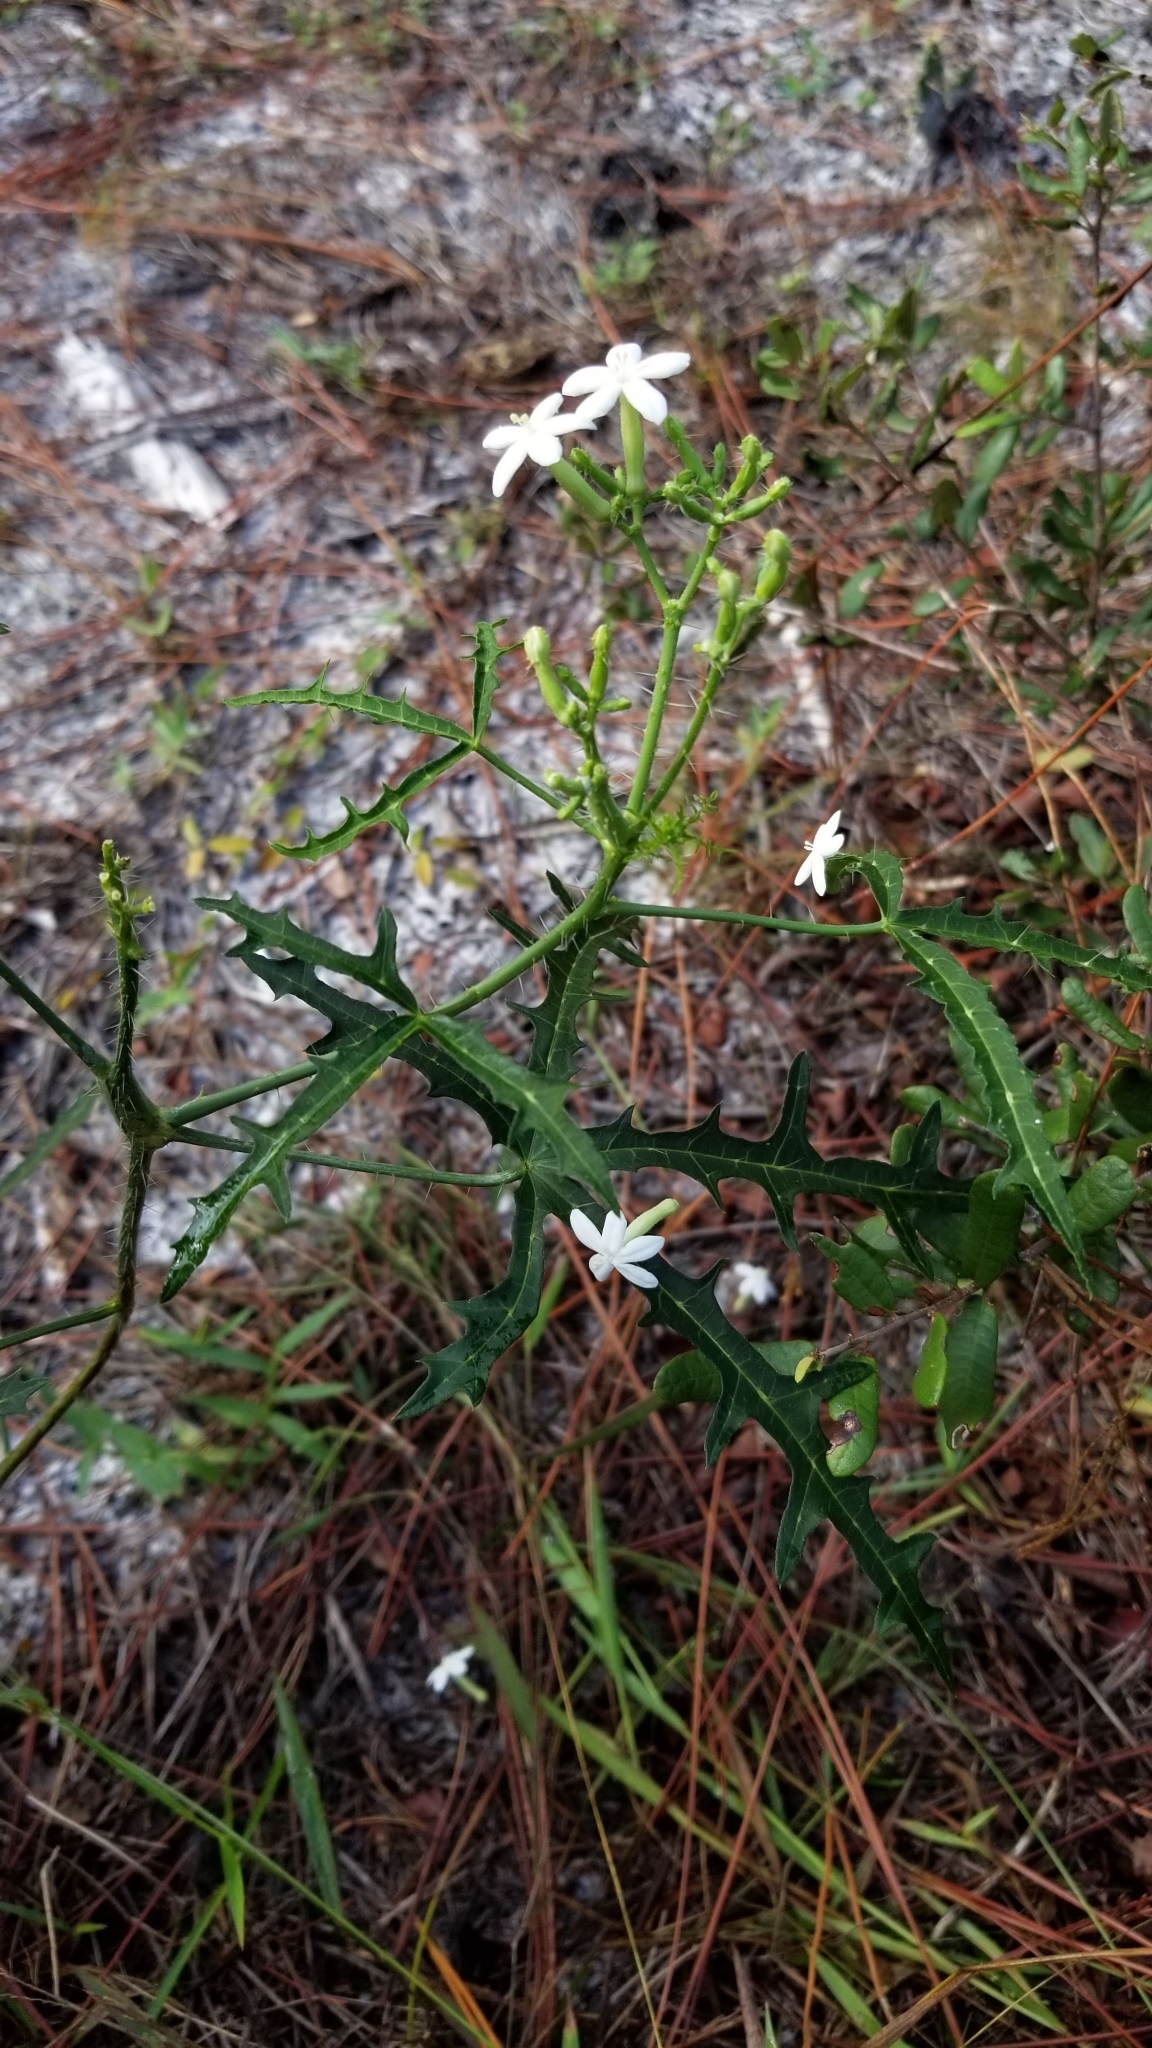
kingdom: Plantae
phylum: Tracheophyta
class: Magnoliopsida
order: Malpighiales
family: Euphorbiaceae
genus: Cnidoscolus
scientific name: Cnidoscolus stimulosus
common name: Bull-nettle
